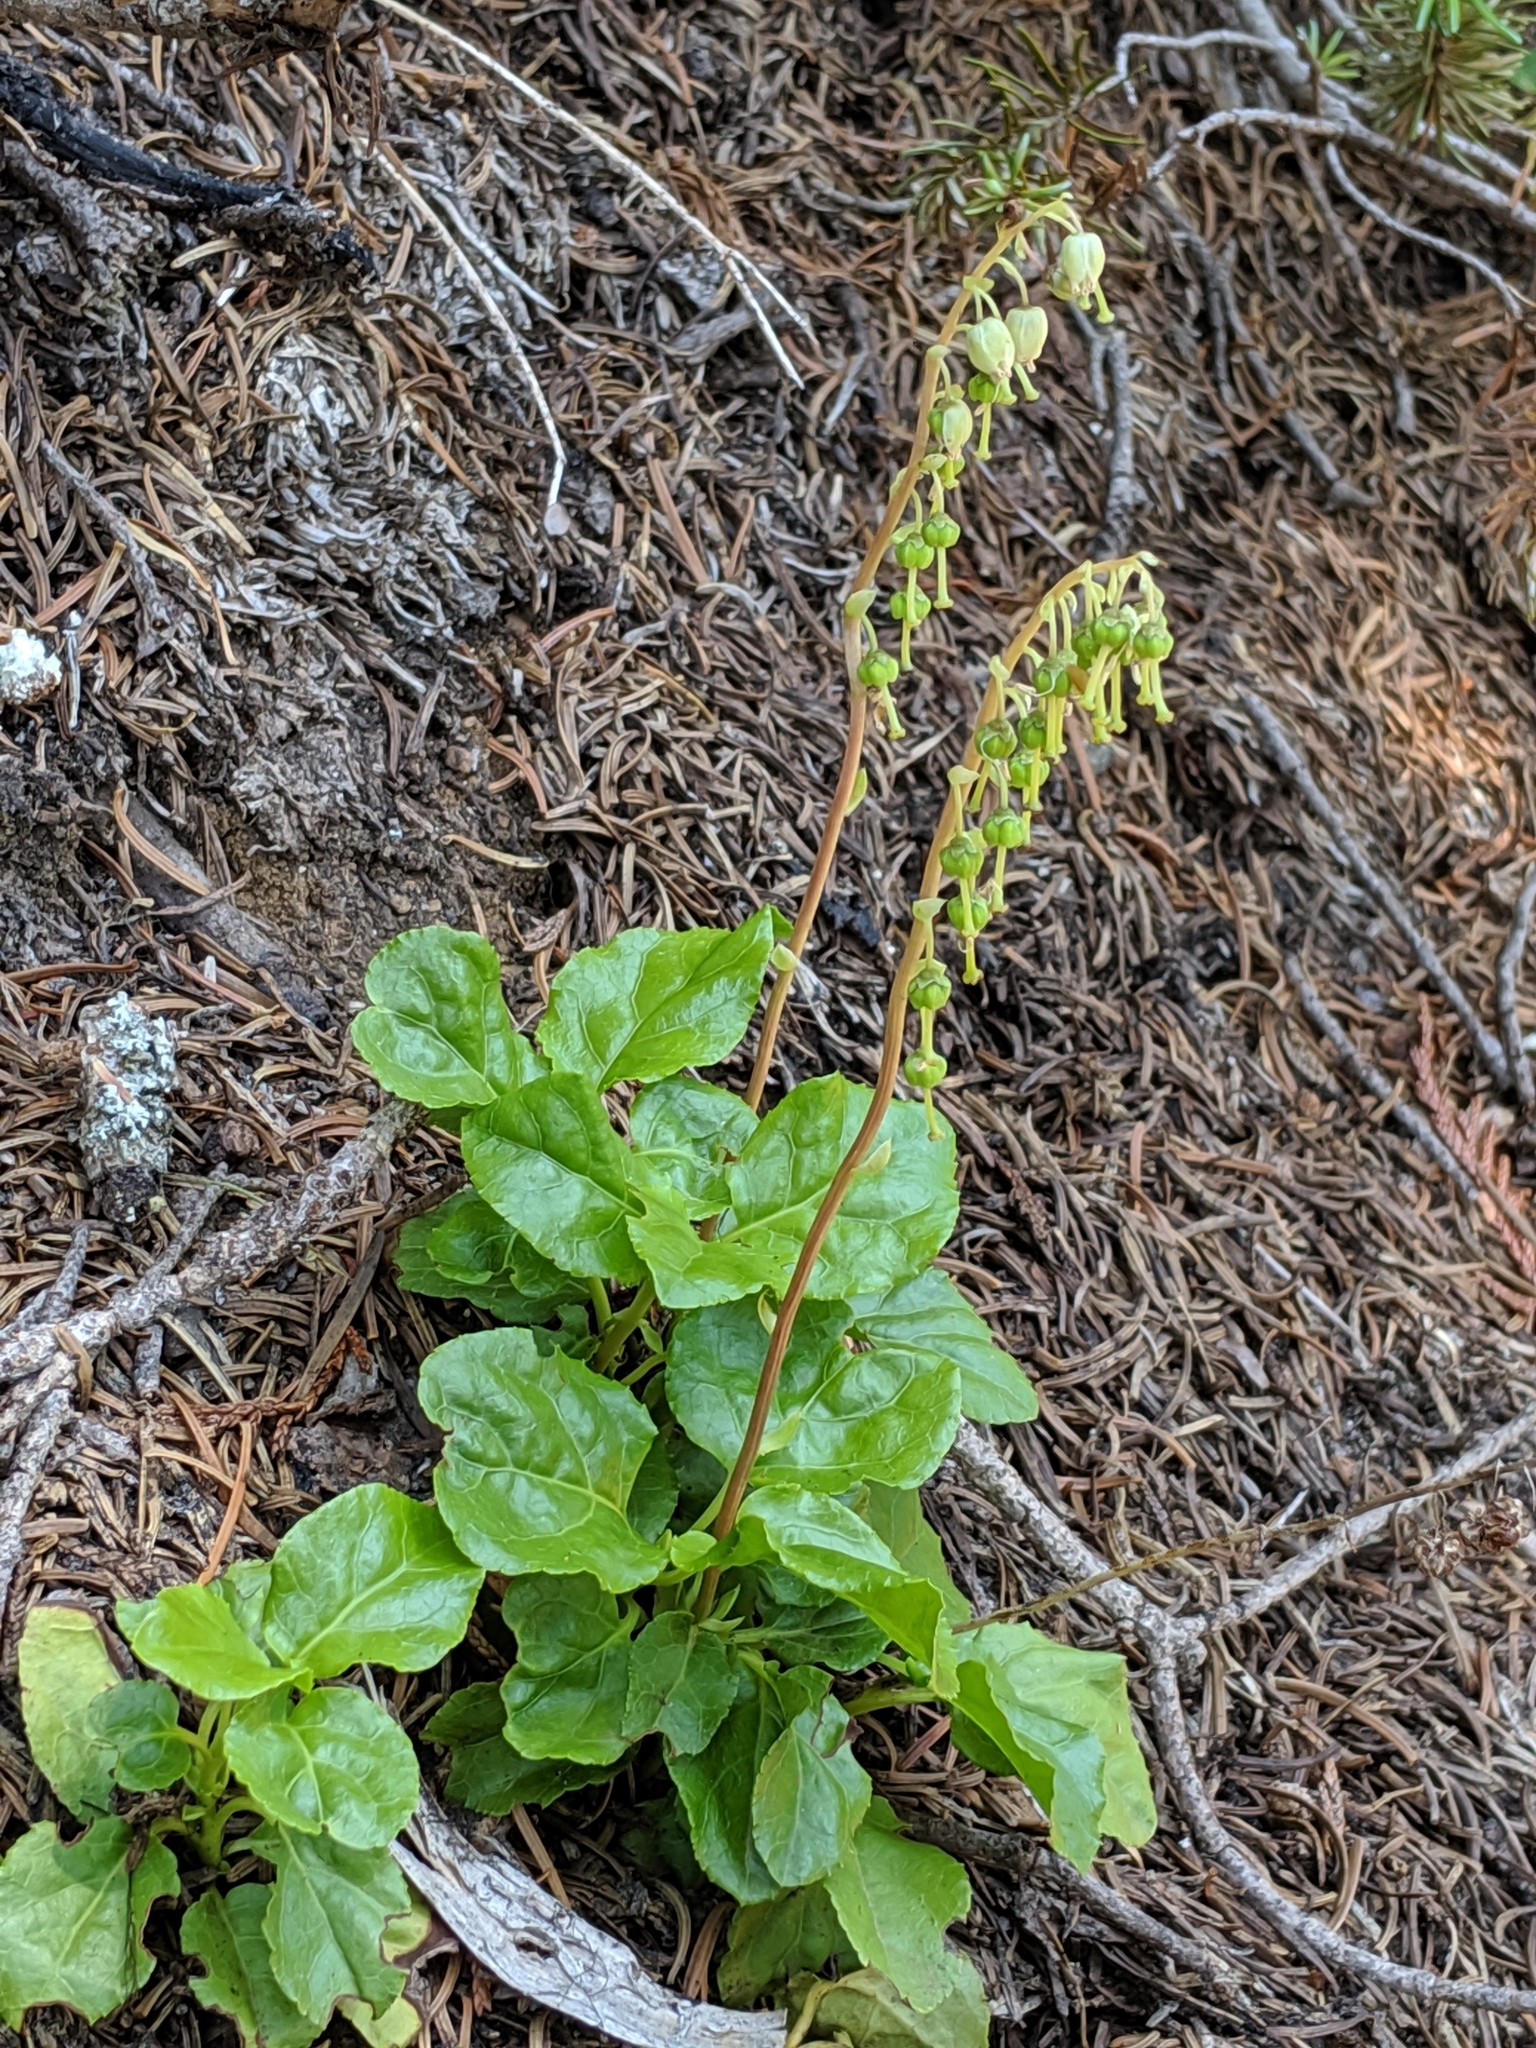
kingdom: Plantae
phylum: Tracheophyta
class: Magnoliopsida
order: Ericales
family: Ericaceae
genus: Orthilia
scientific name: Orthilia secunda
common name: One-sided orthilia
